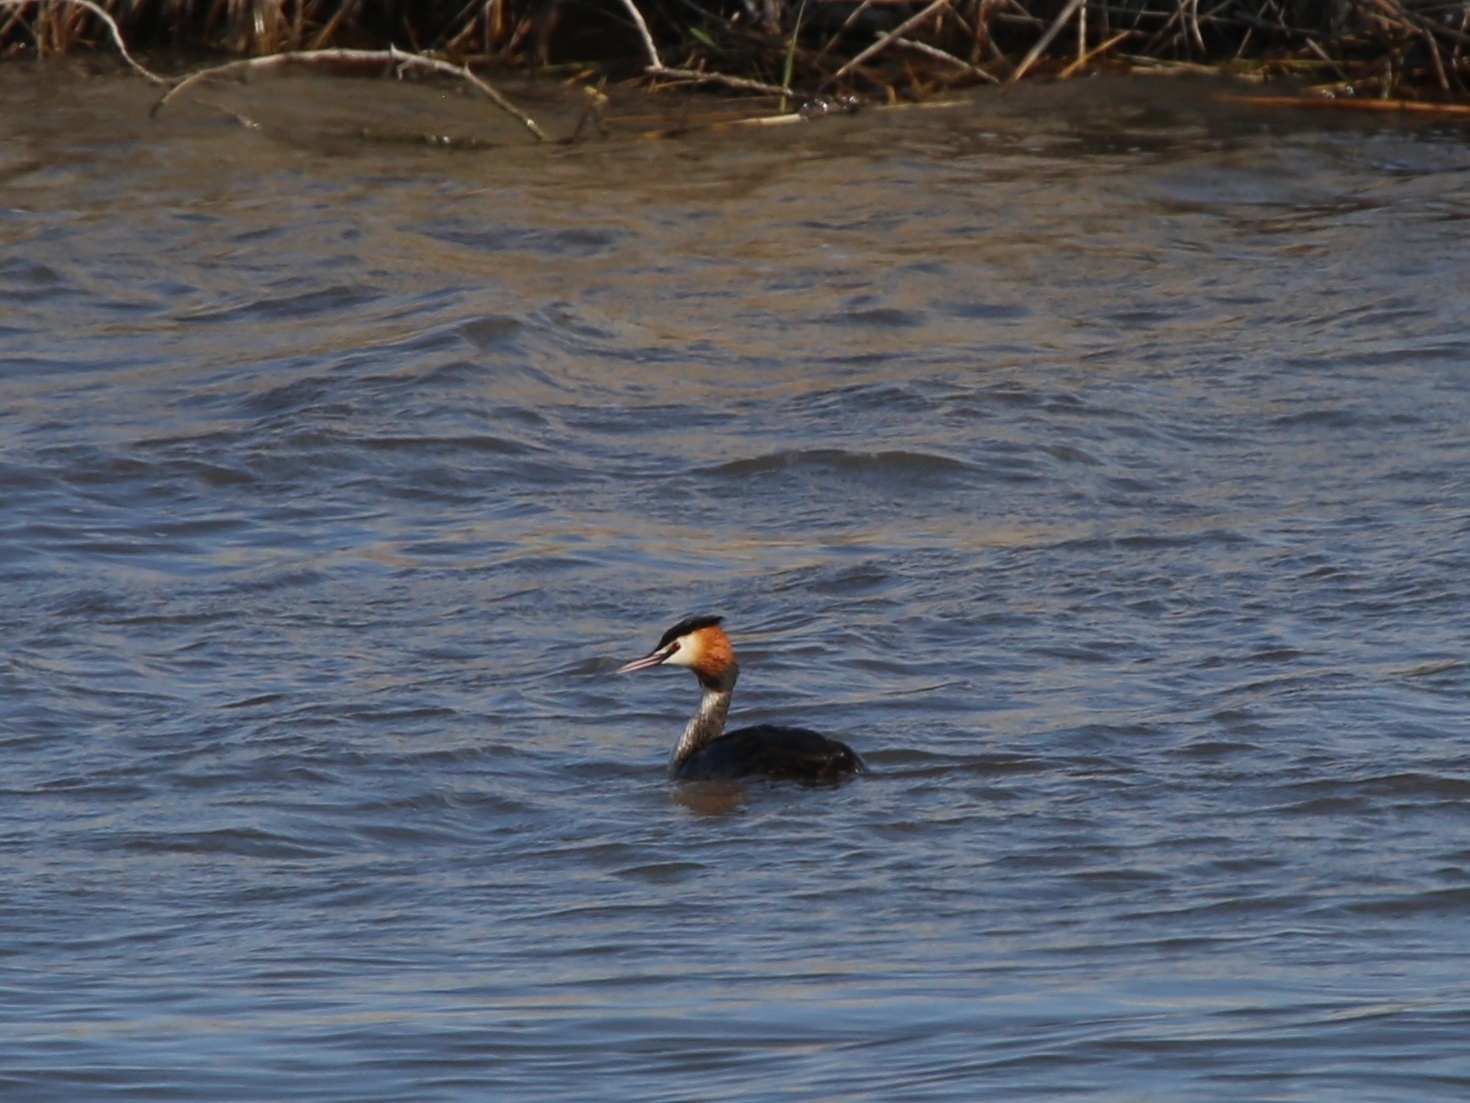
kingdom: Animalia
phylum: Chordata
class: Aves
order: Podicipediformes
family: Podicipedidae
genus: Podiceps
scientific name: Podiceps cristatus
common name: Great crested grebe
